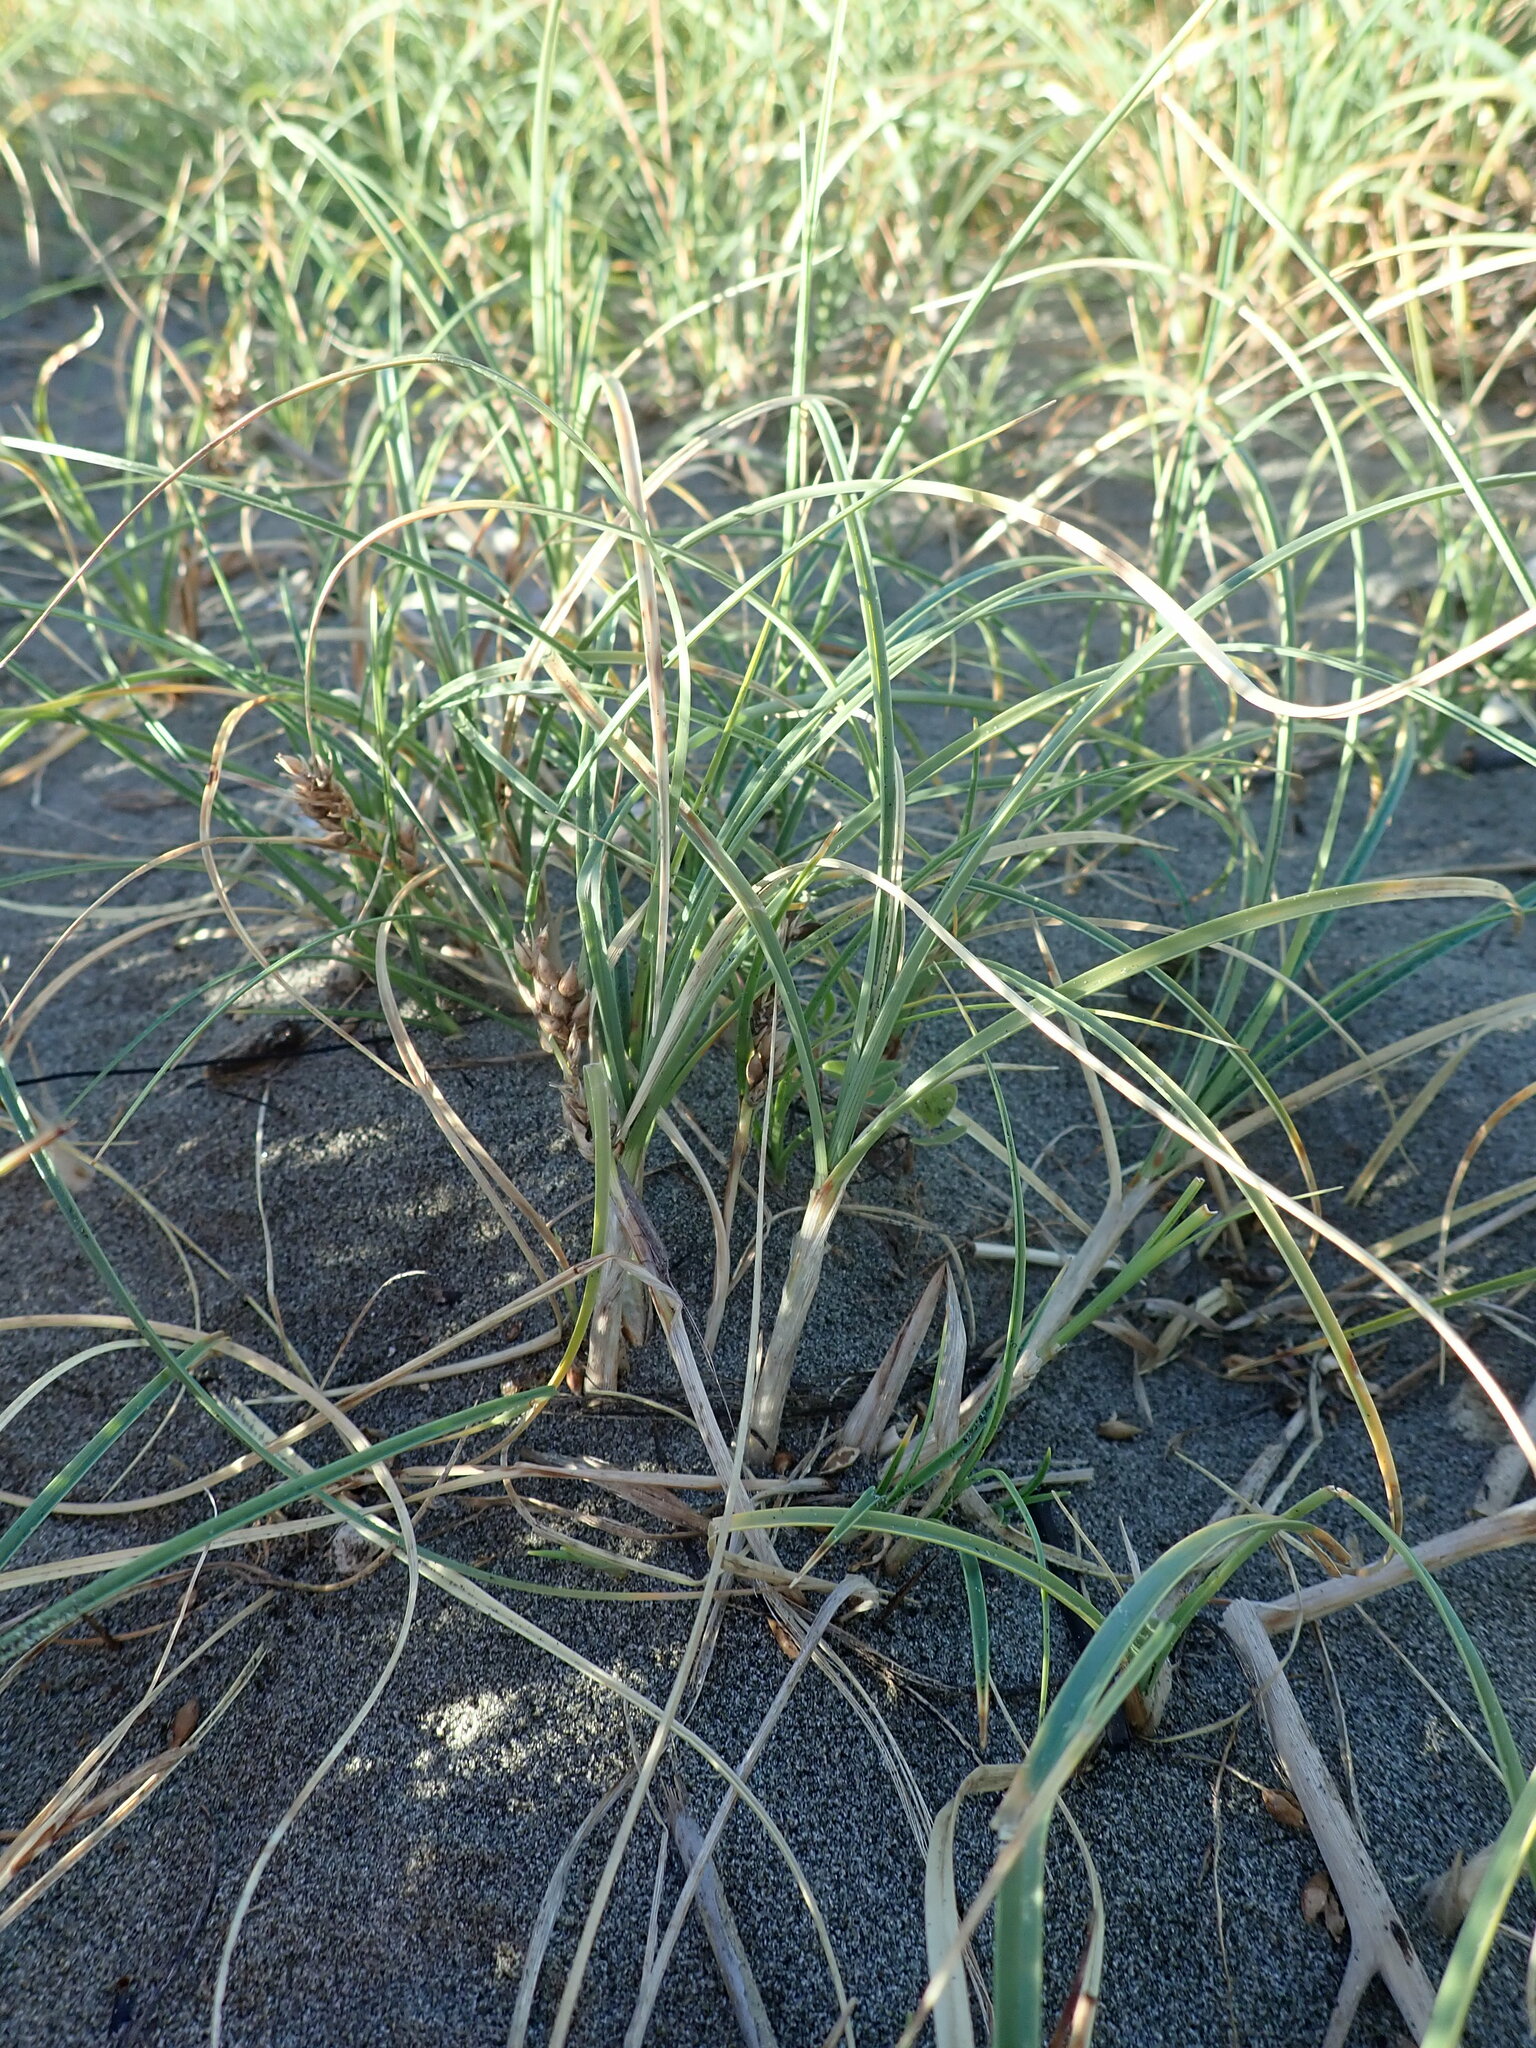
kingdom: Plantae
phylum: Tracheophyta
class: Liliopsida
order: Poales
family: Cyperaceae
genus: Carex
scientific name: Carex pumila
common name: Dwarf sedge
